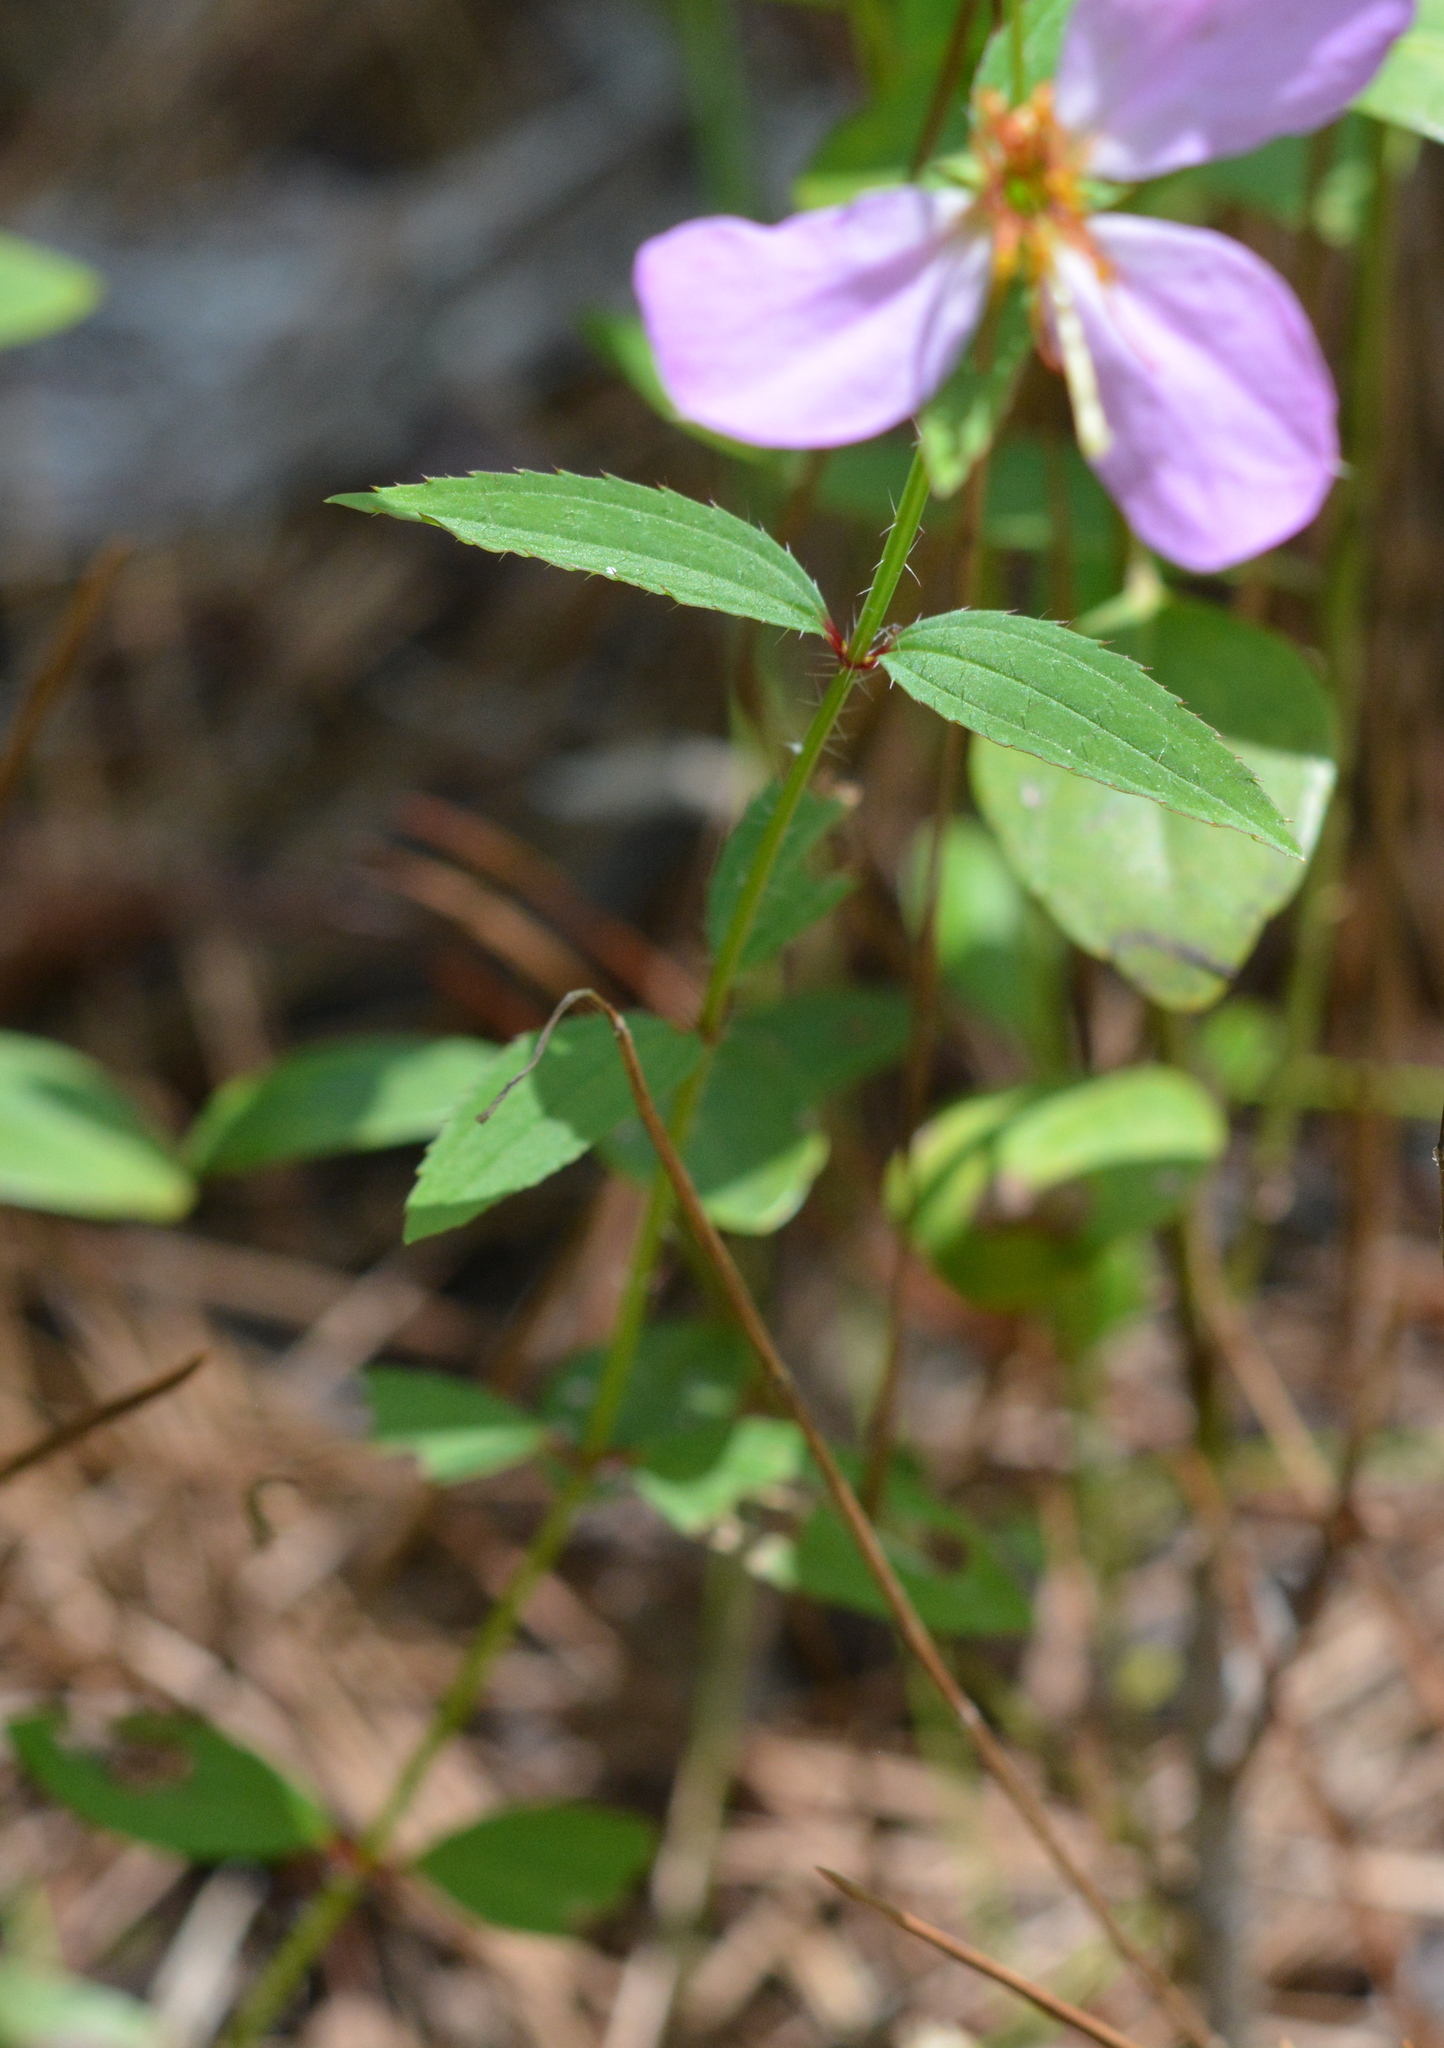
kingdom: Plantae
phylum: Tracheophyta
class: Magnoliopsida
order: Myrtales
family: Melastomataceae
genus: Rhexia
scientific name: Rhexia virginica
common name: Common meadow beauty
